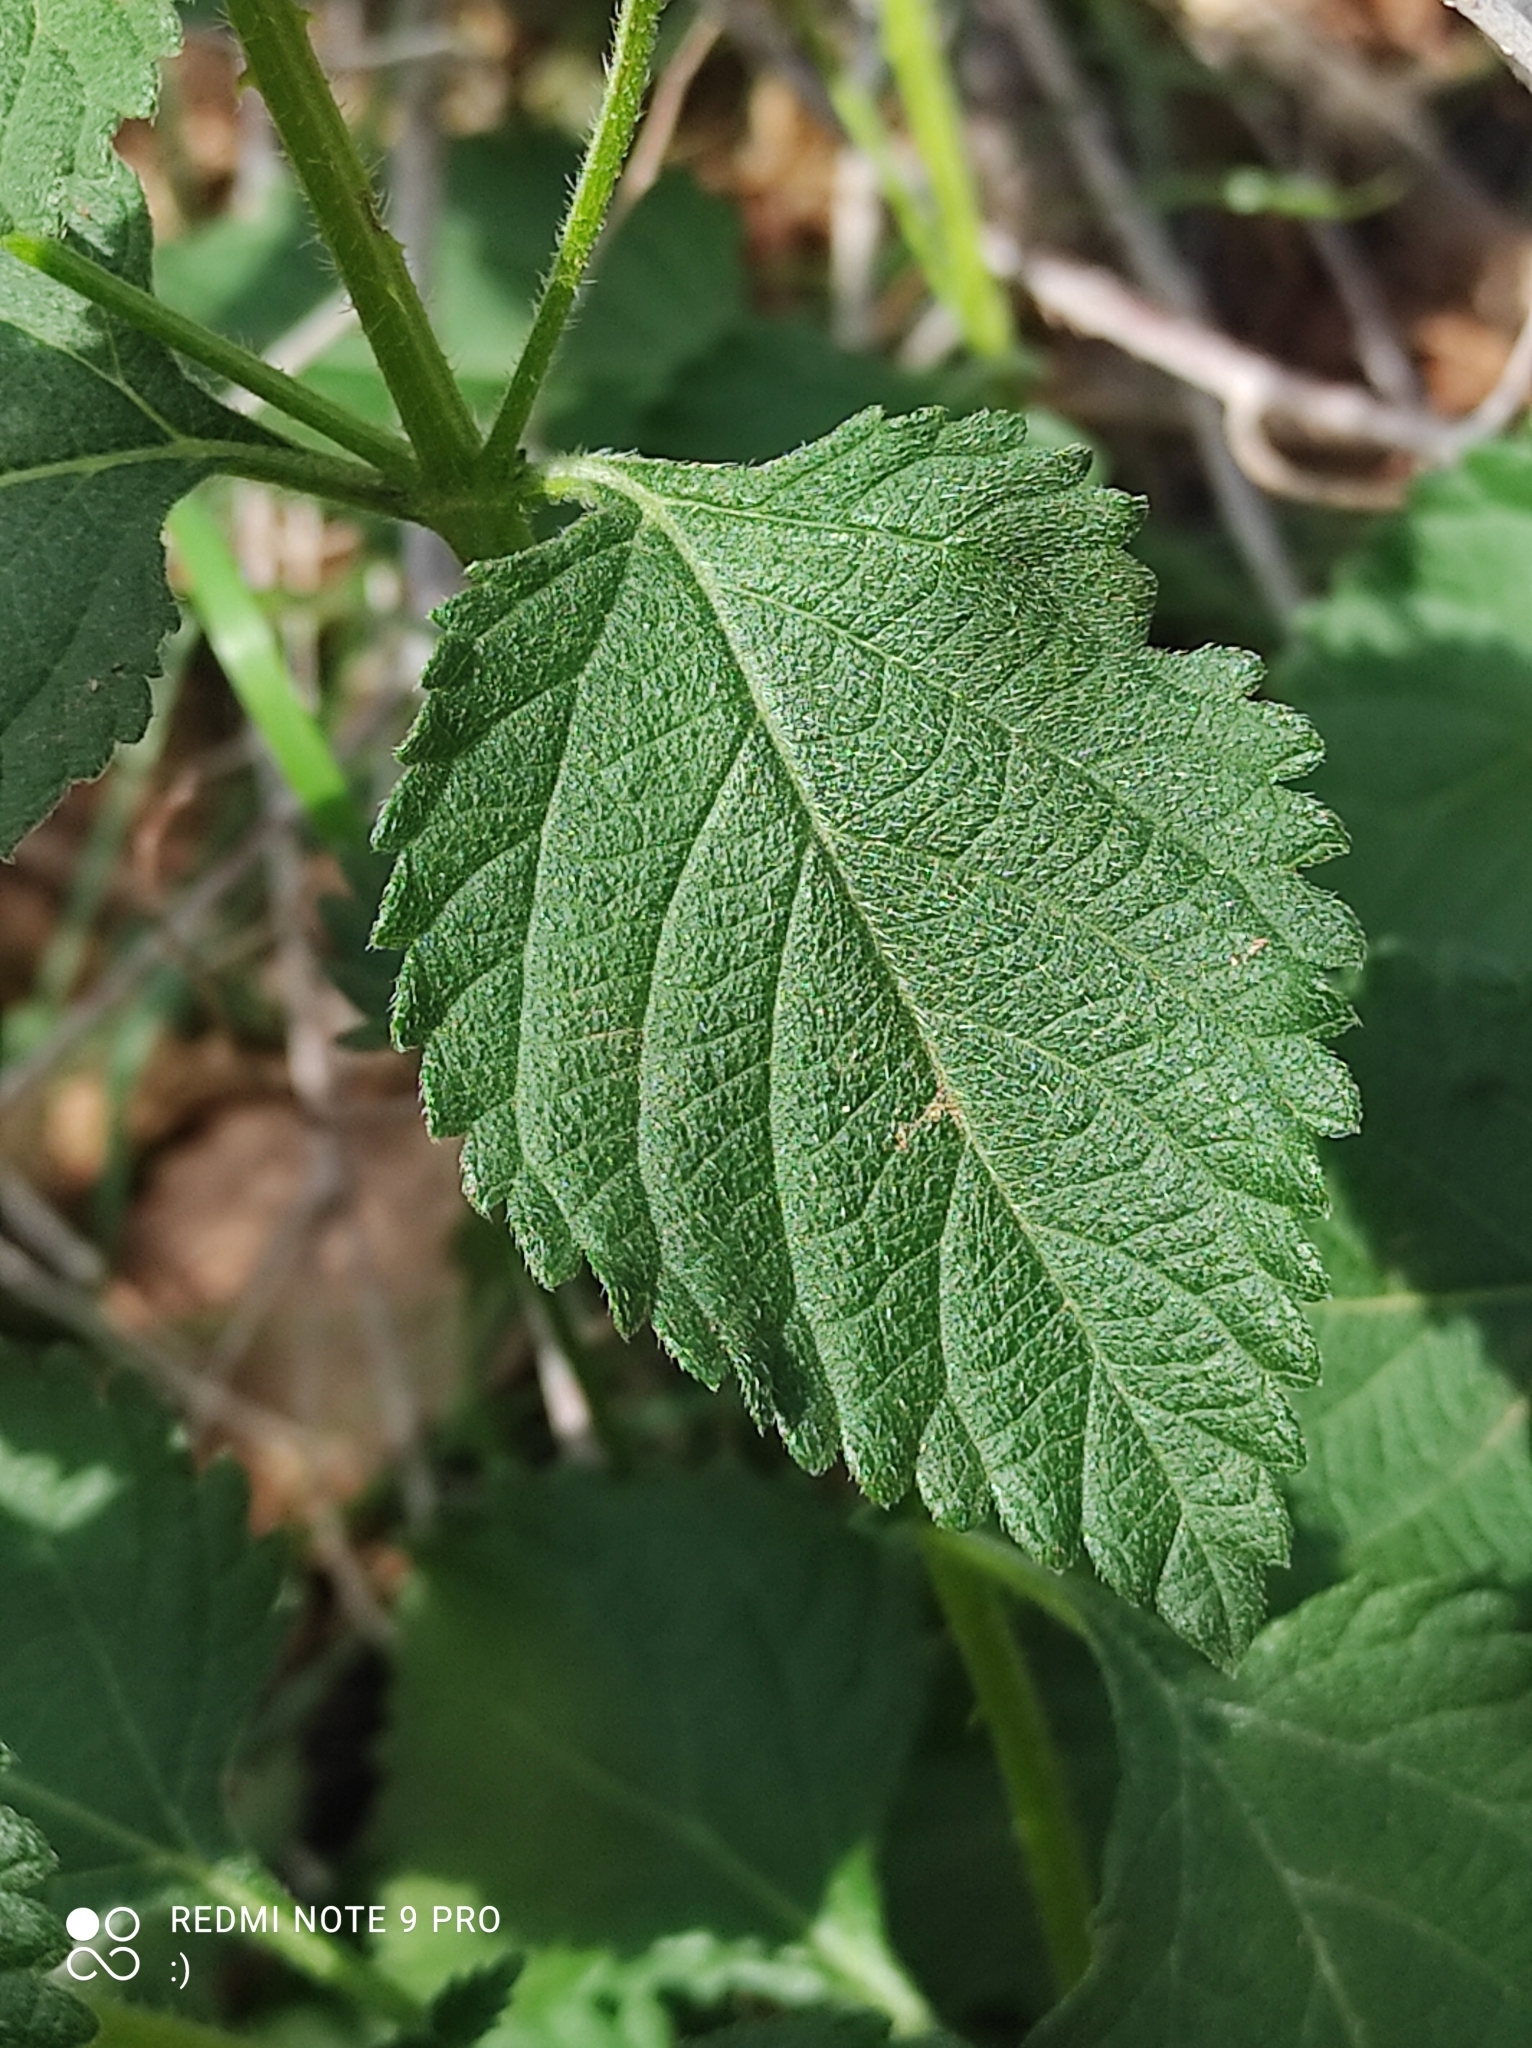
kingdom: Plantae
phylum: Tracheophyta
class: Magnoliopsida
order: Lamiales
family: Verbenaceae
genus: Lantana
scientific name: Lantana camara
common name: Lantana
